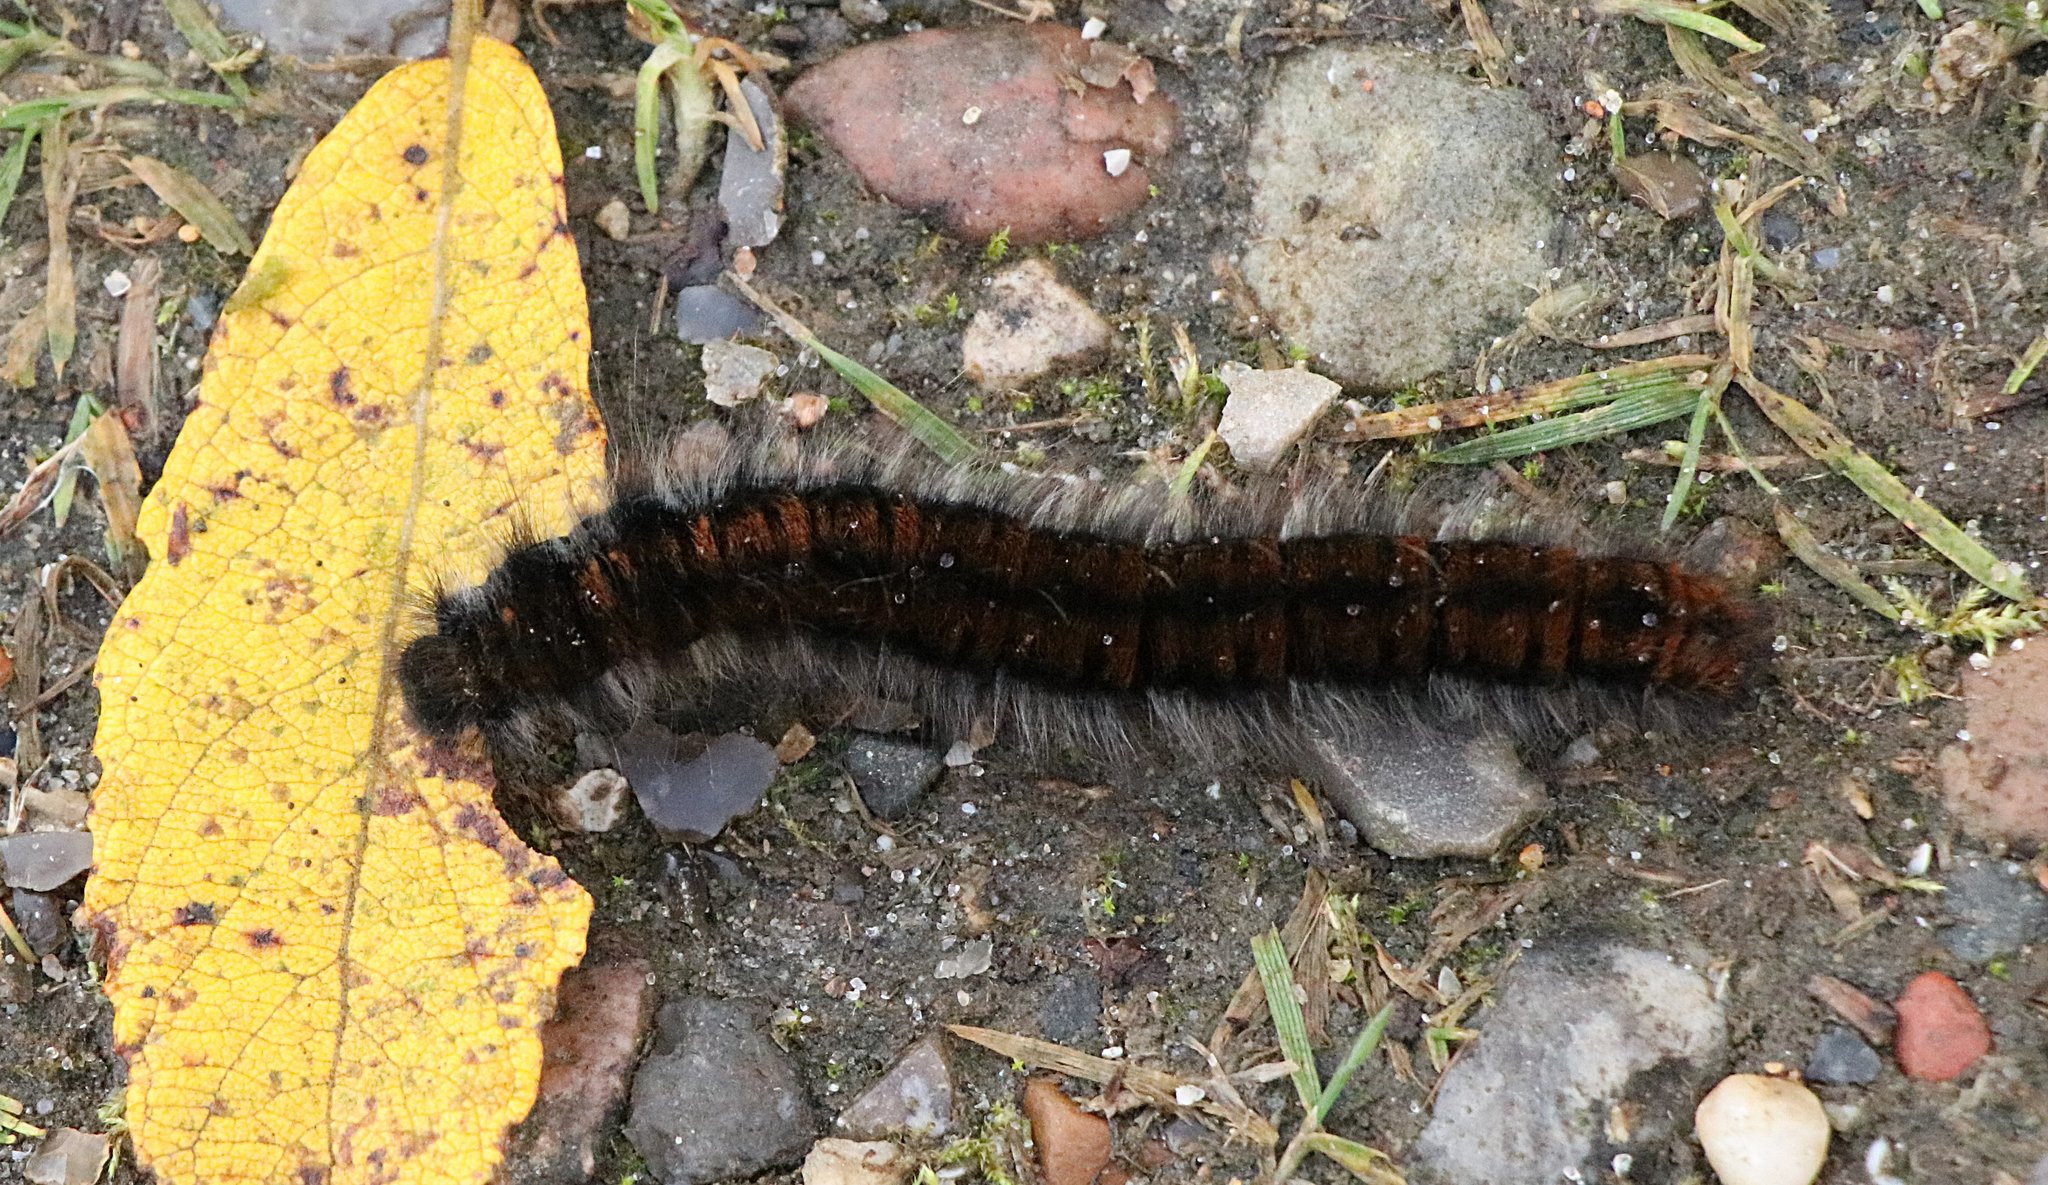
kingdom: Animalia
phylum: Arthropoda
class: Insecta
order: Lepidoptera
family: Lasiocampidae
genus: Macrothylacia
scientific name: Macrothylacia rubi
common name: Fox moth
